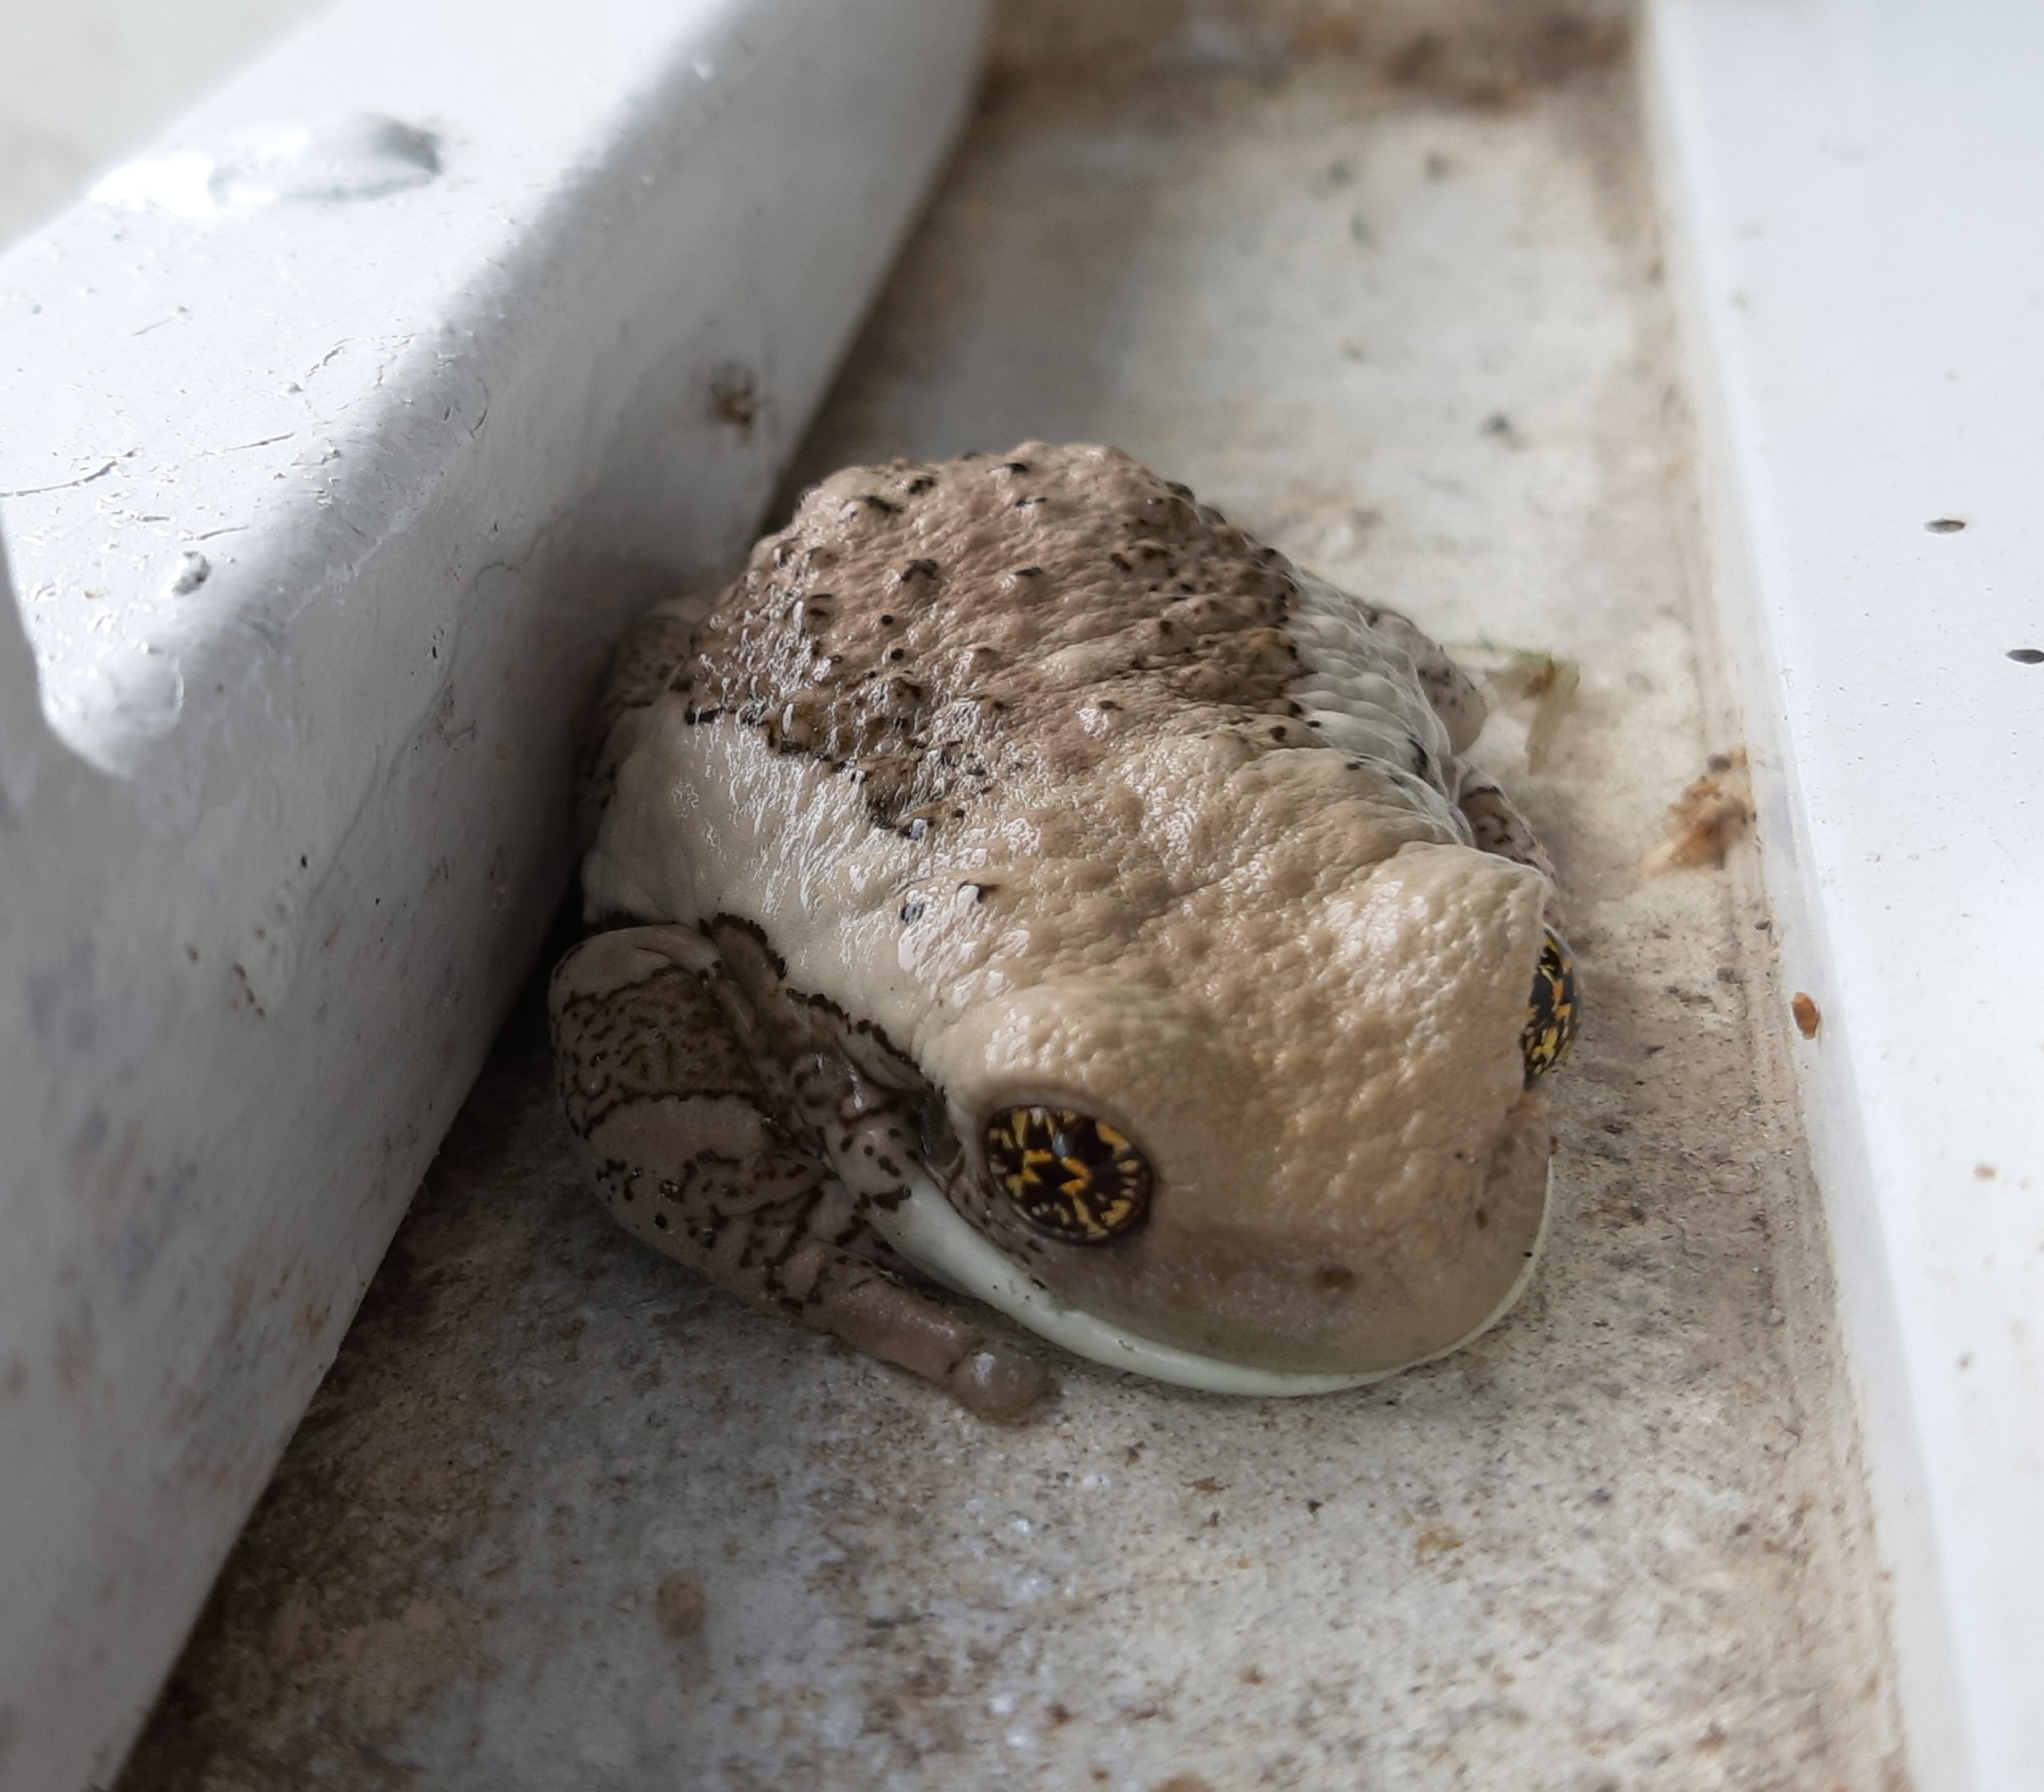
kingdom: Animalia
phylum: Chordata
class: Amphibia
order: Anura
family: Hylidae
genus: Trachycephalus
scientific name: Trachycephalus vermiculatus
